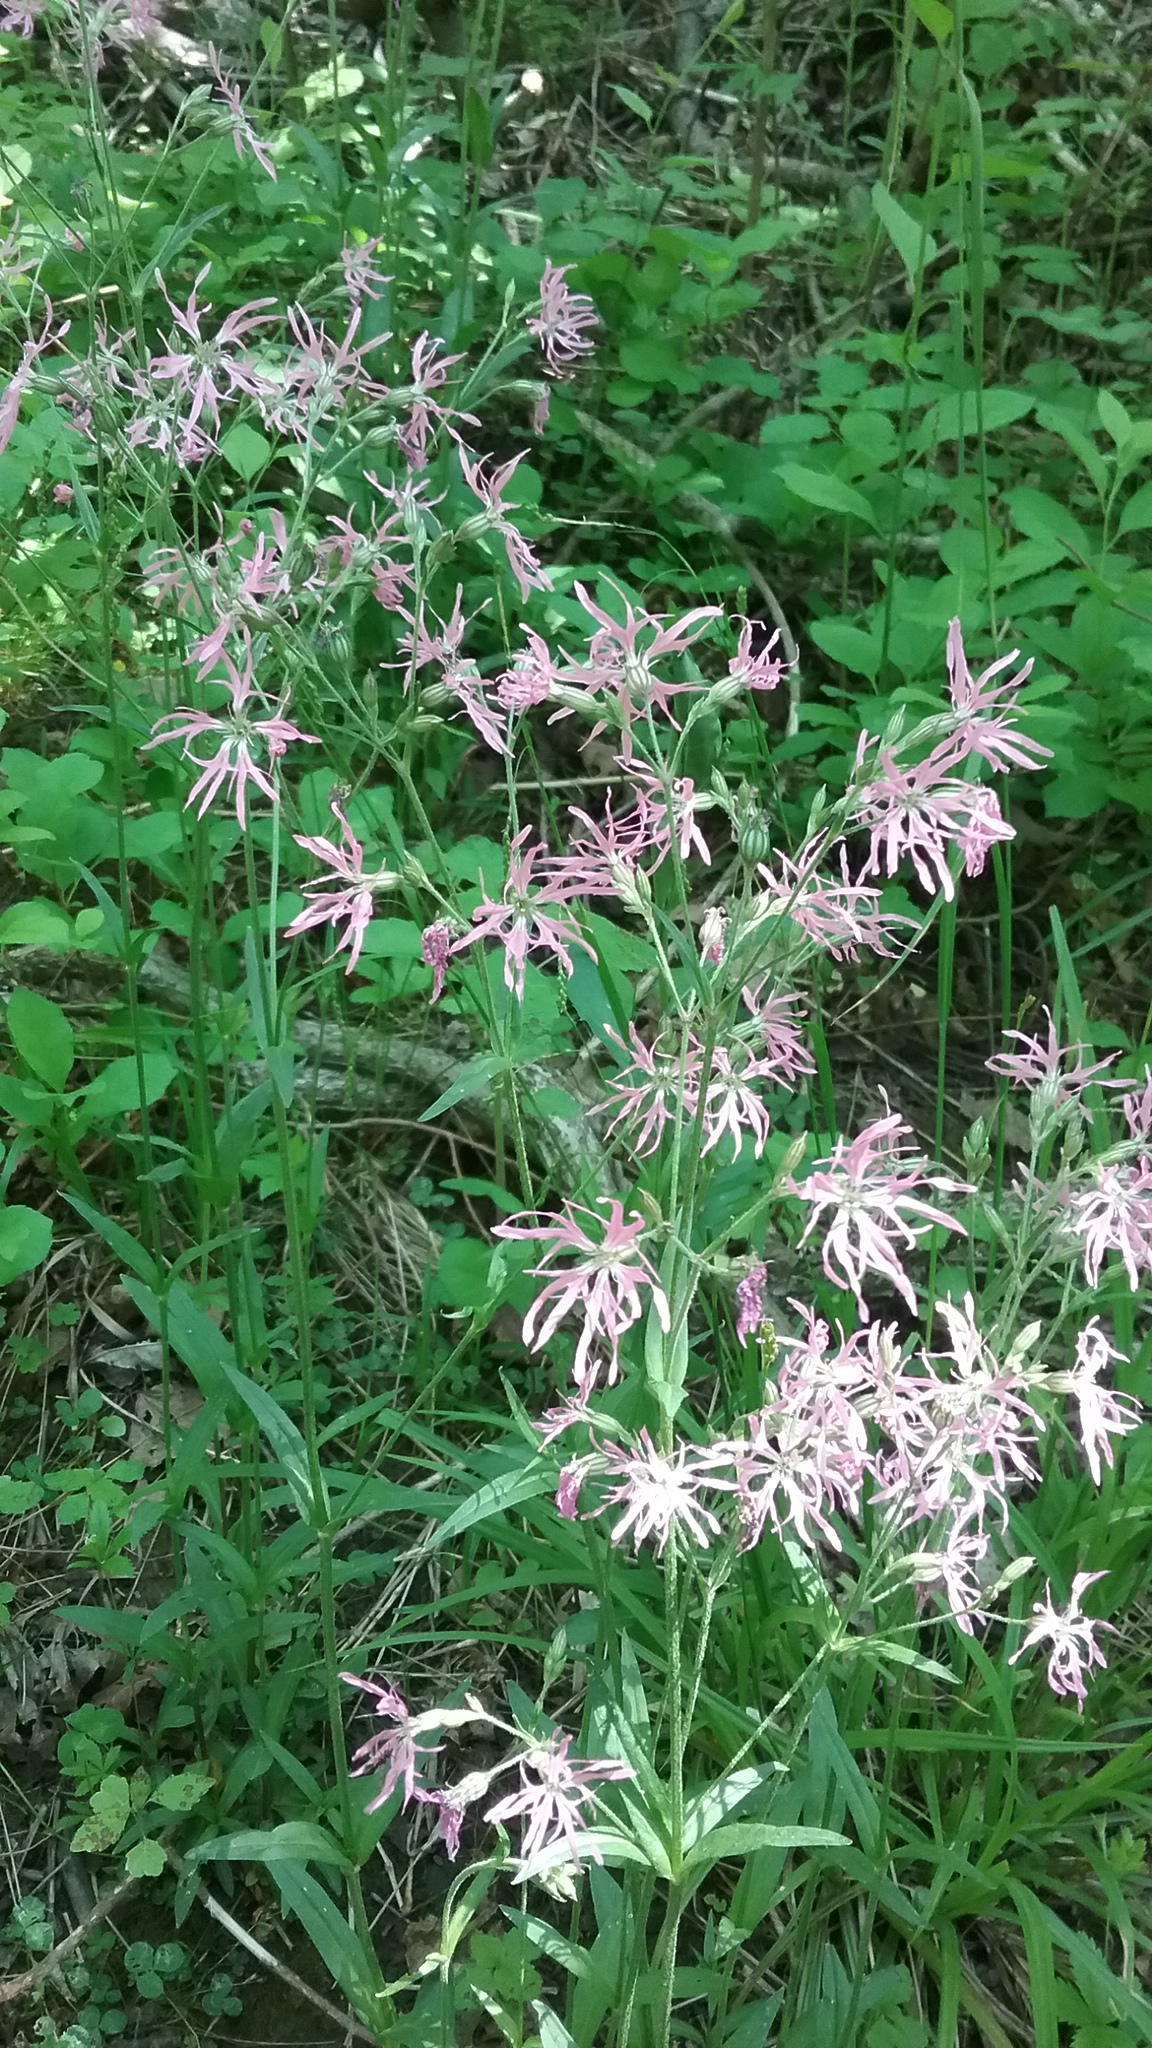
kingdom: Plantae
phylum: Tracheophyta
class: Magnoliopsida
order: Caryophyllales
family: Caryophyllaceae
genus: Silene
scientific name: Silene flos-cuculi
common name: Ragged-robin
